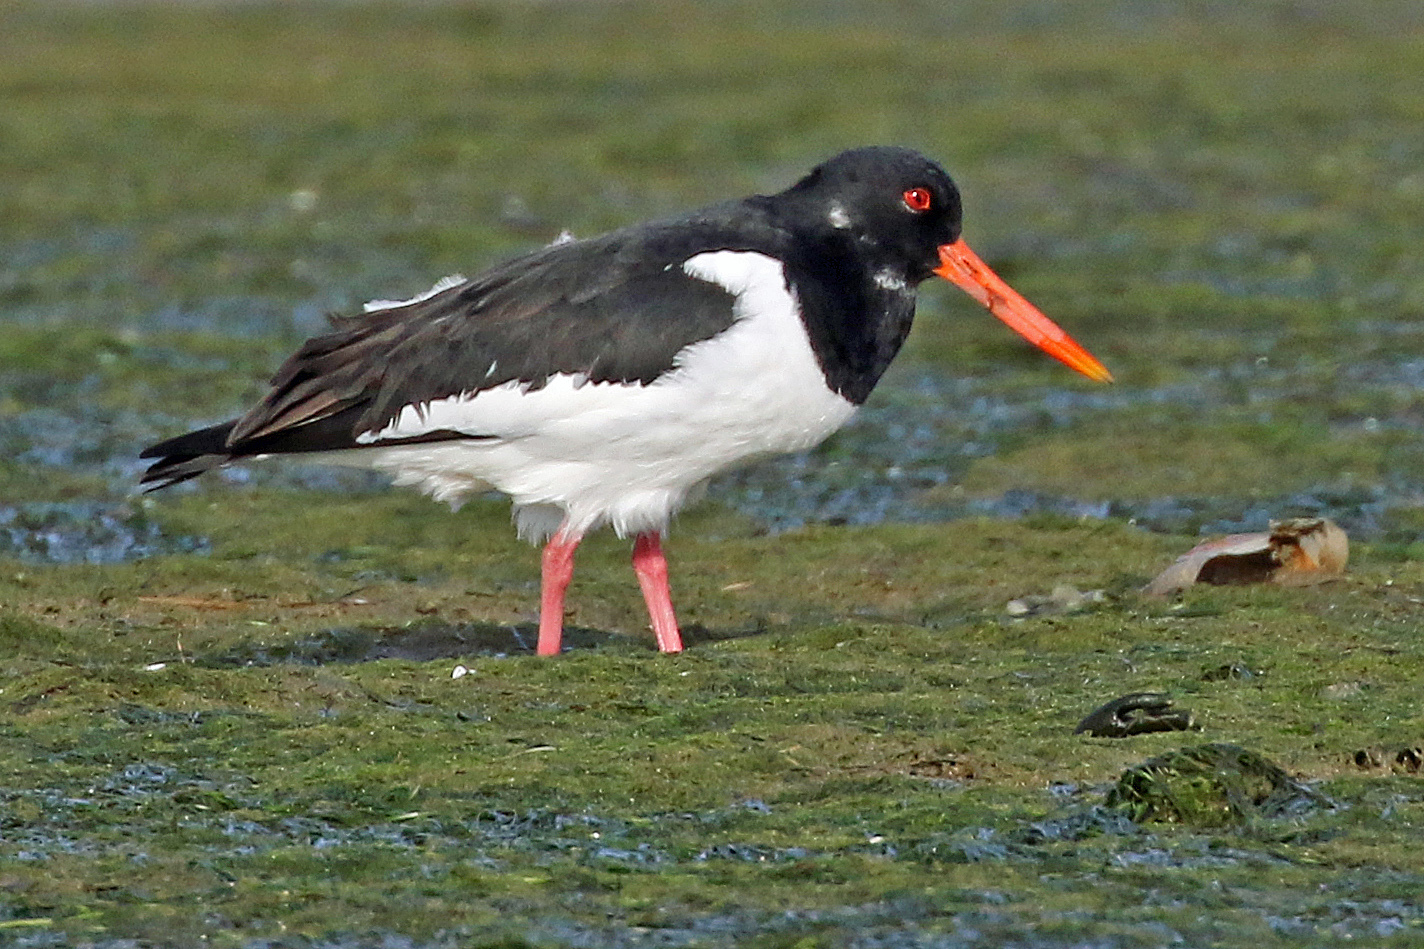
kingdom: Animalia
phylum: Chordata
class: Aves
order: Charadriiformes
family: Haematopodidae
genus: Haematopus
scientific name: Haematopus ostralegus
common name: Eurasian oystercatcher
